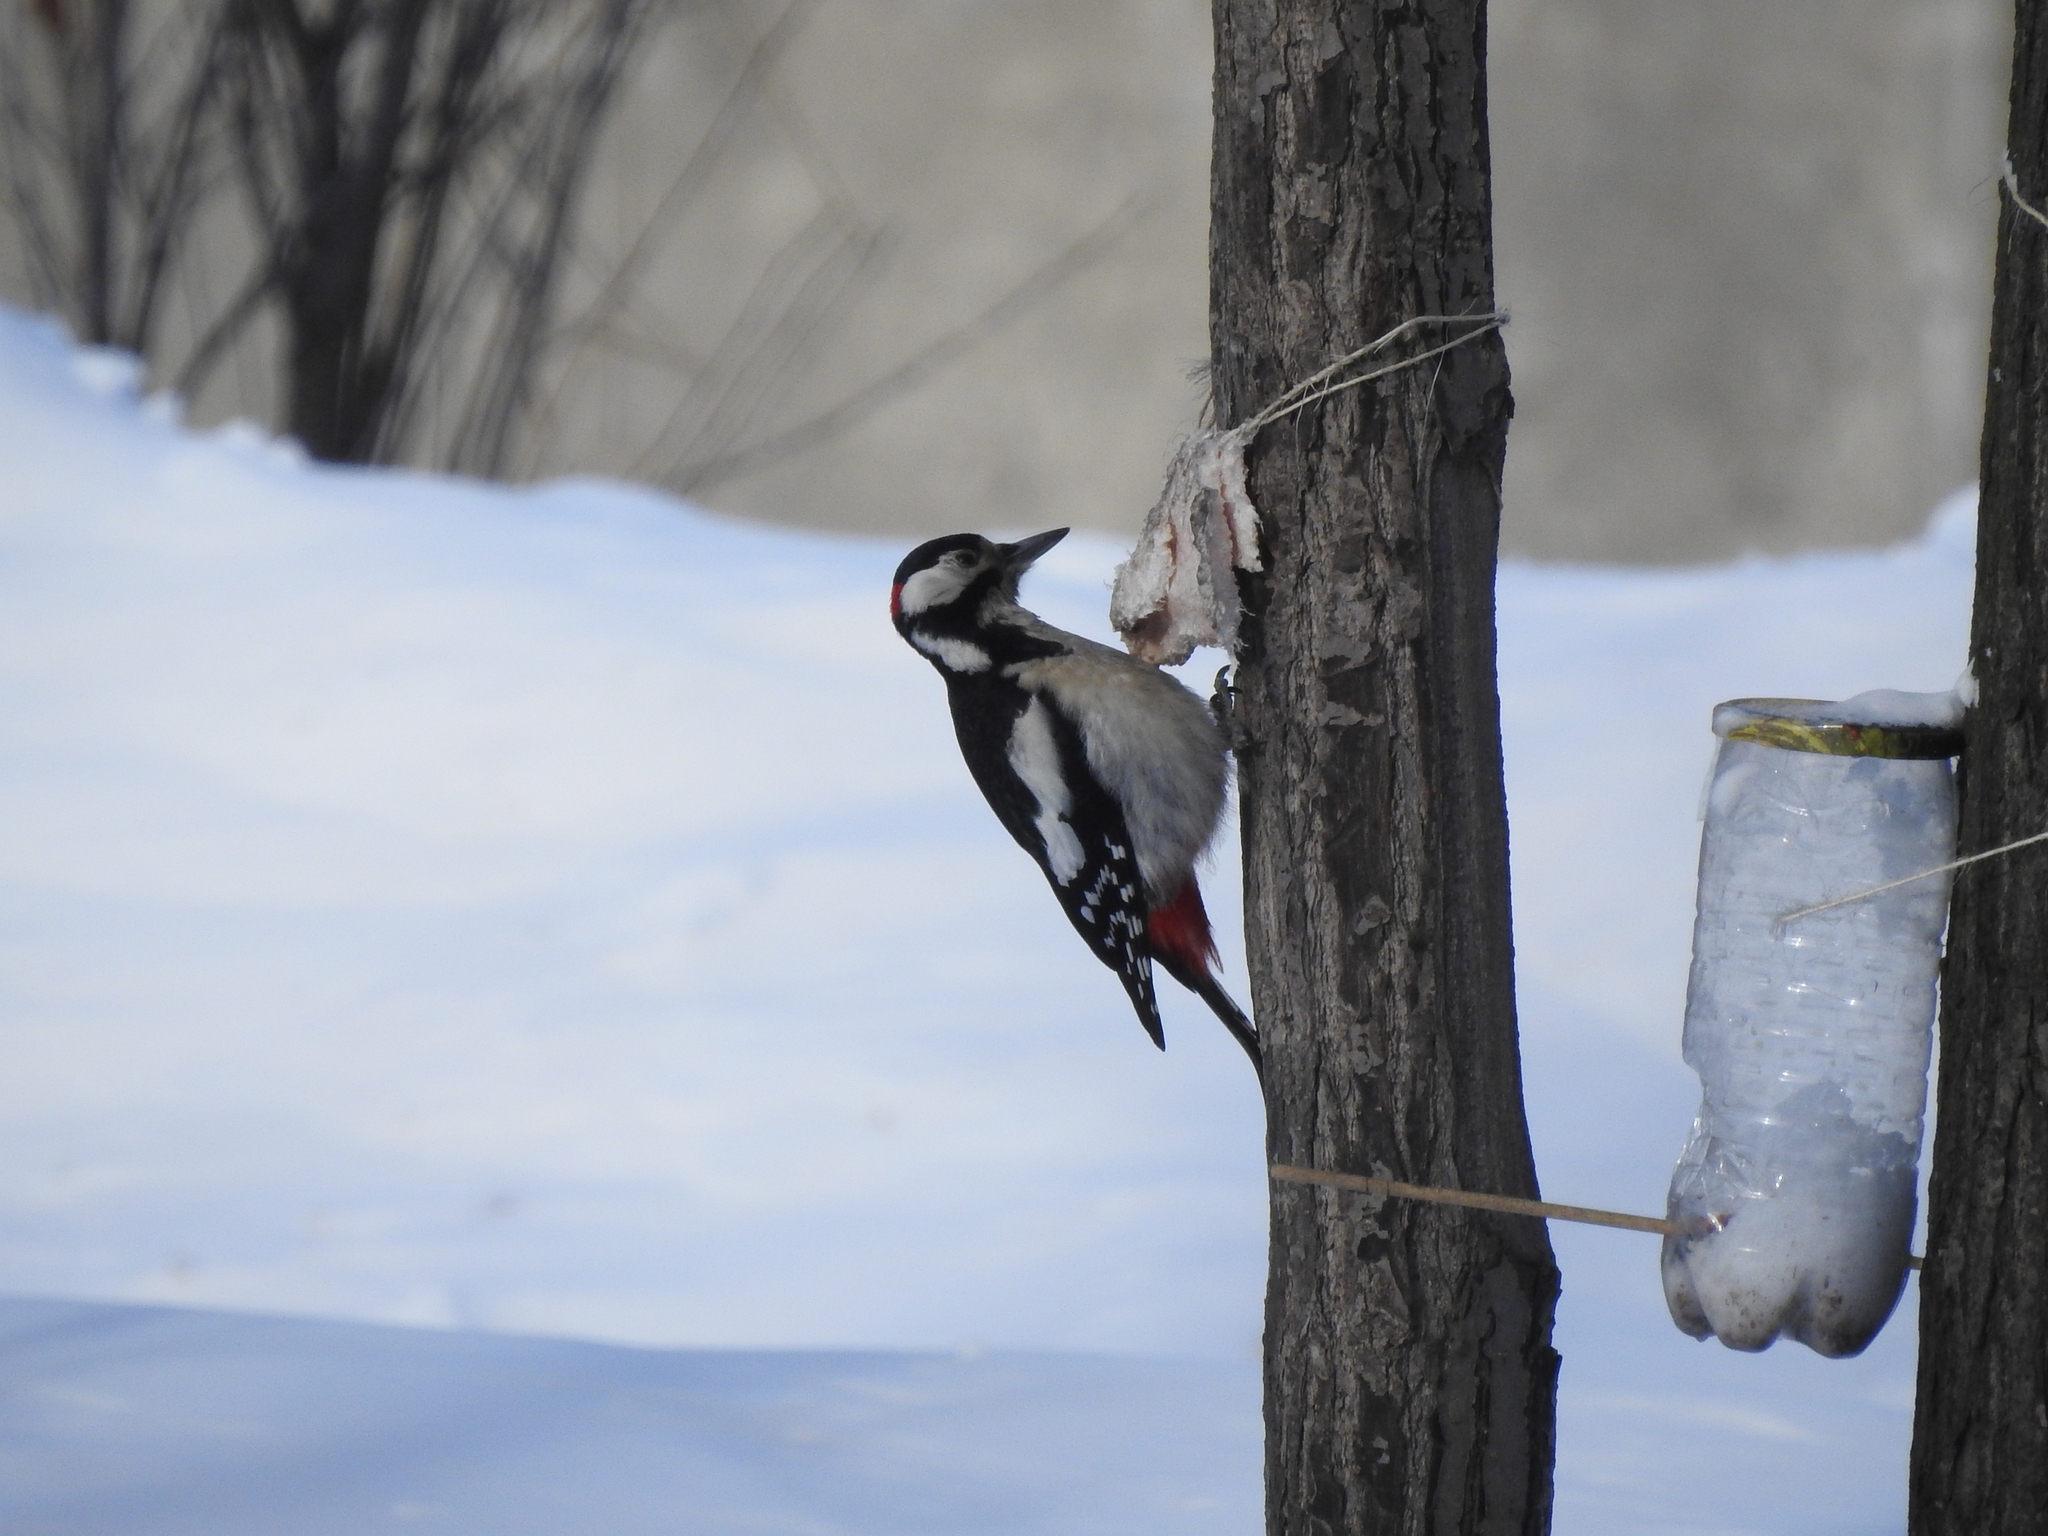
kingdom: Animalia
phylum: Chordata
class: Aves
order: Piciformes
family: Picidae
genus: Dendrocopos
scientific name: Dendrocopos major
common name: Great spotted woodpecker
